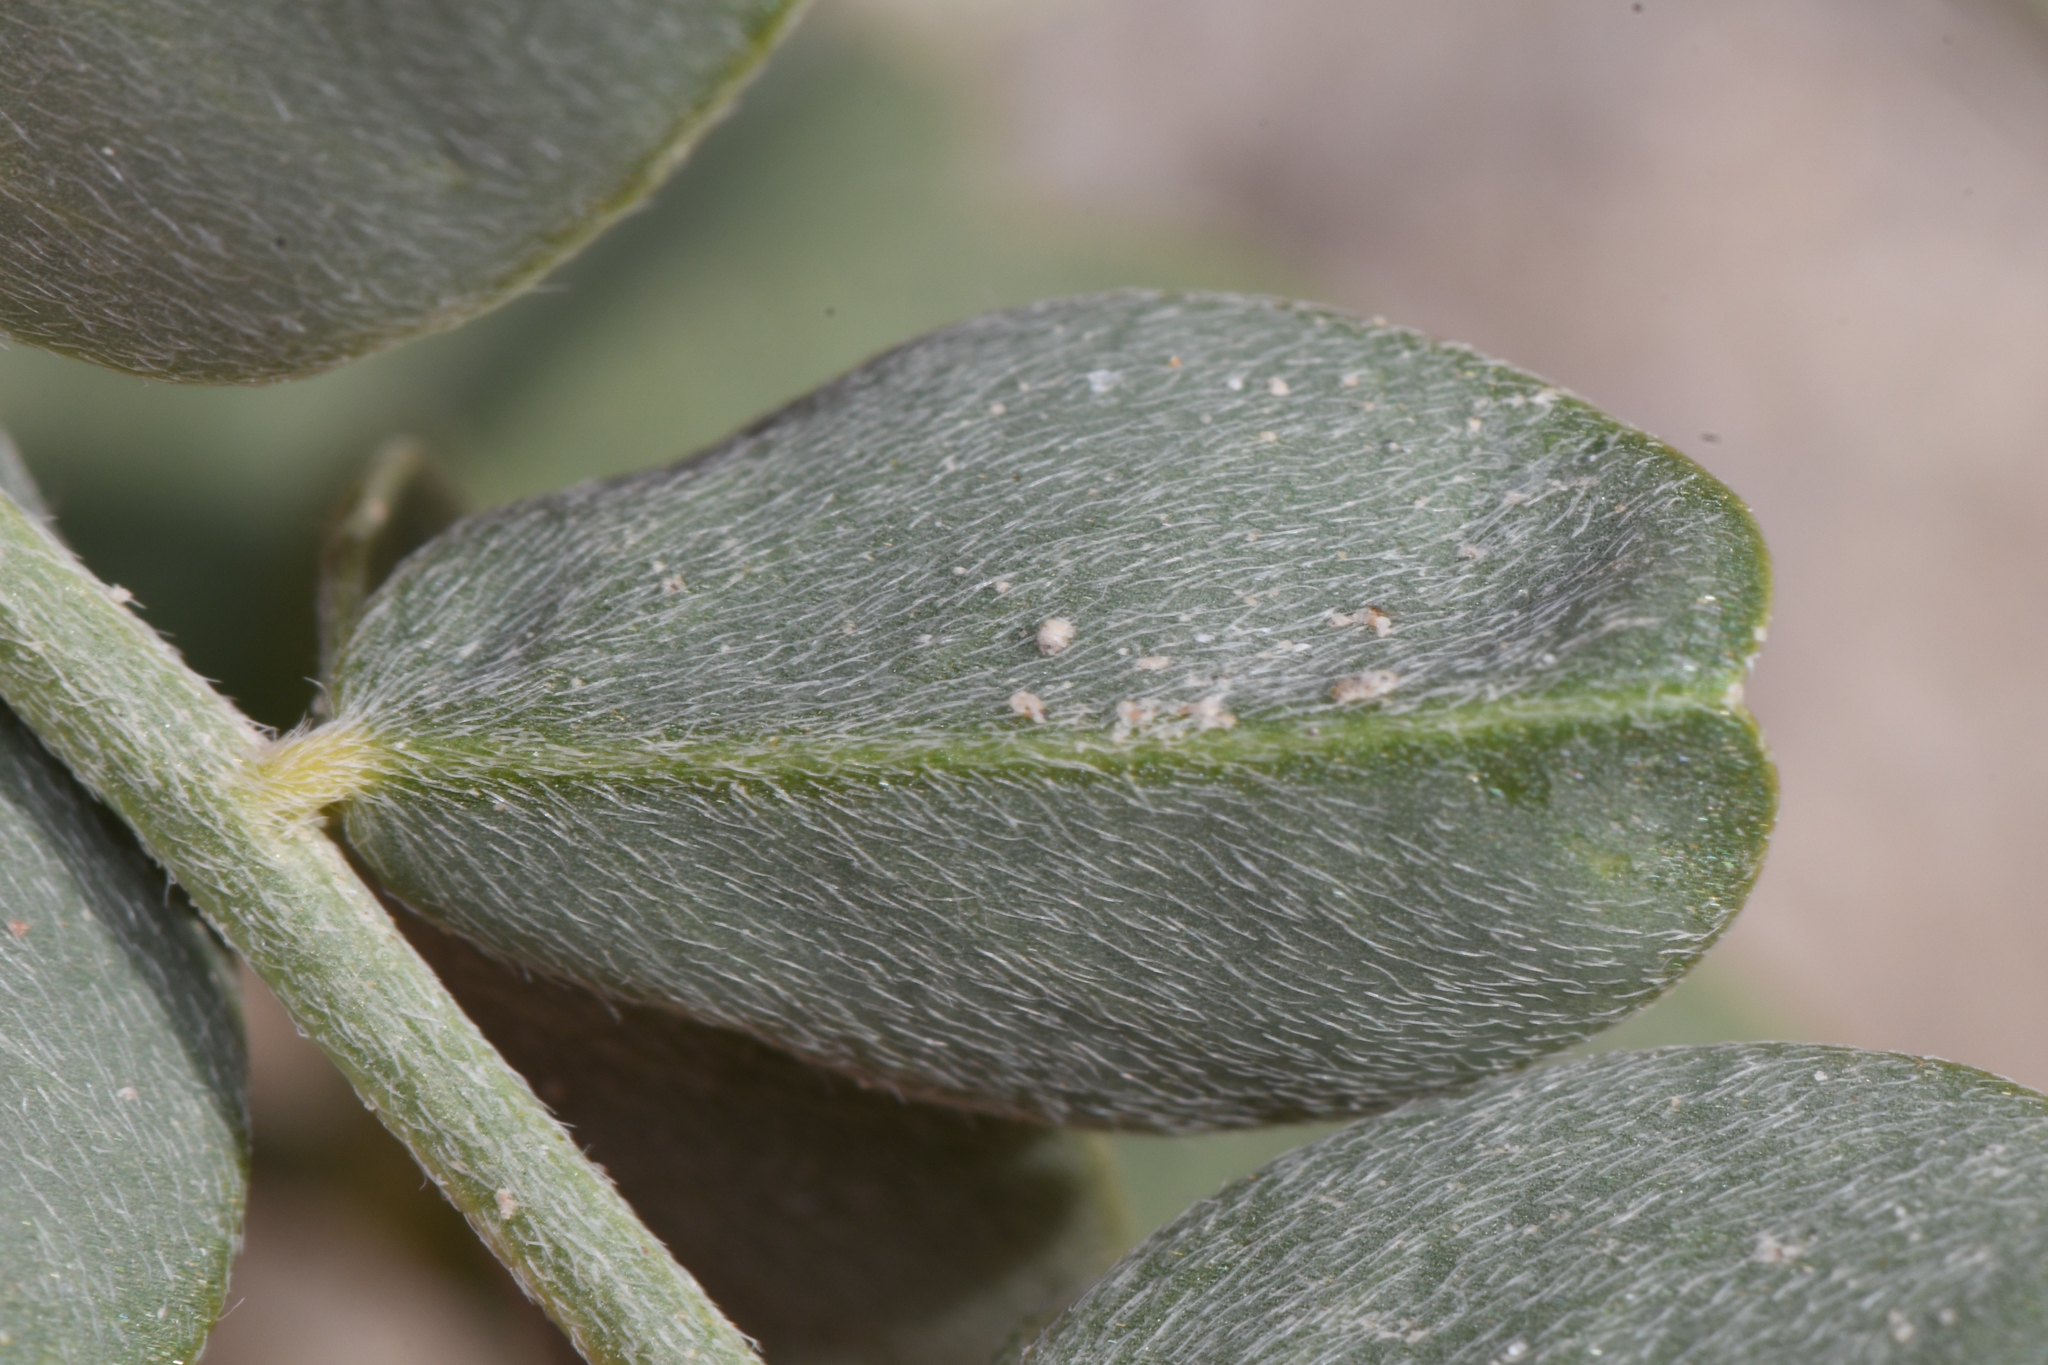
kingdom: Plantae
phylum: Tracheophyta
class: Magnoliopsida
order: Fabales
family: Fabaceae
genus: Astragalus
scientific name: Astragalus crotalariae
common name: Salton milkvetch
